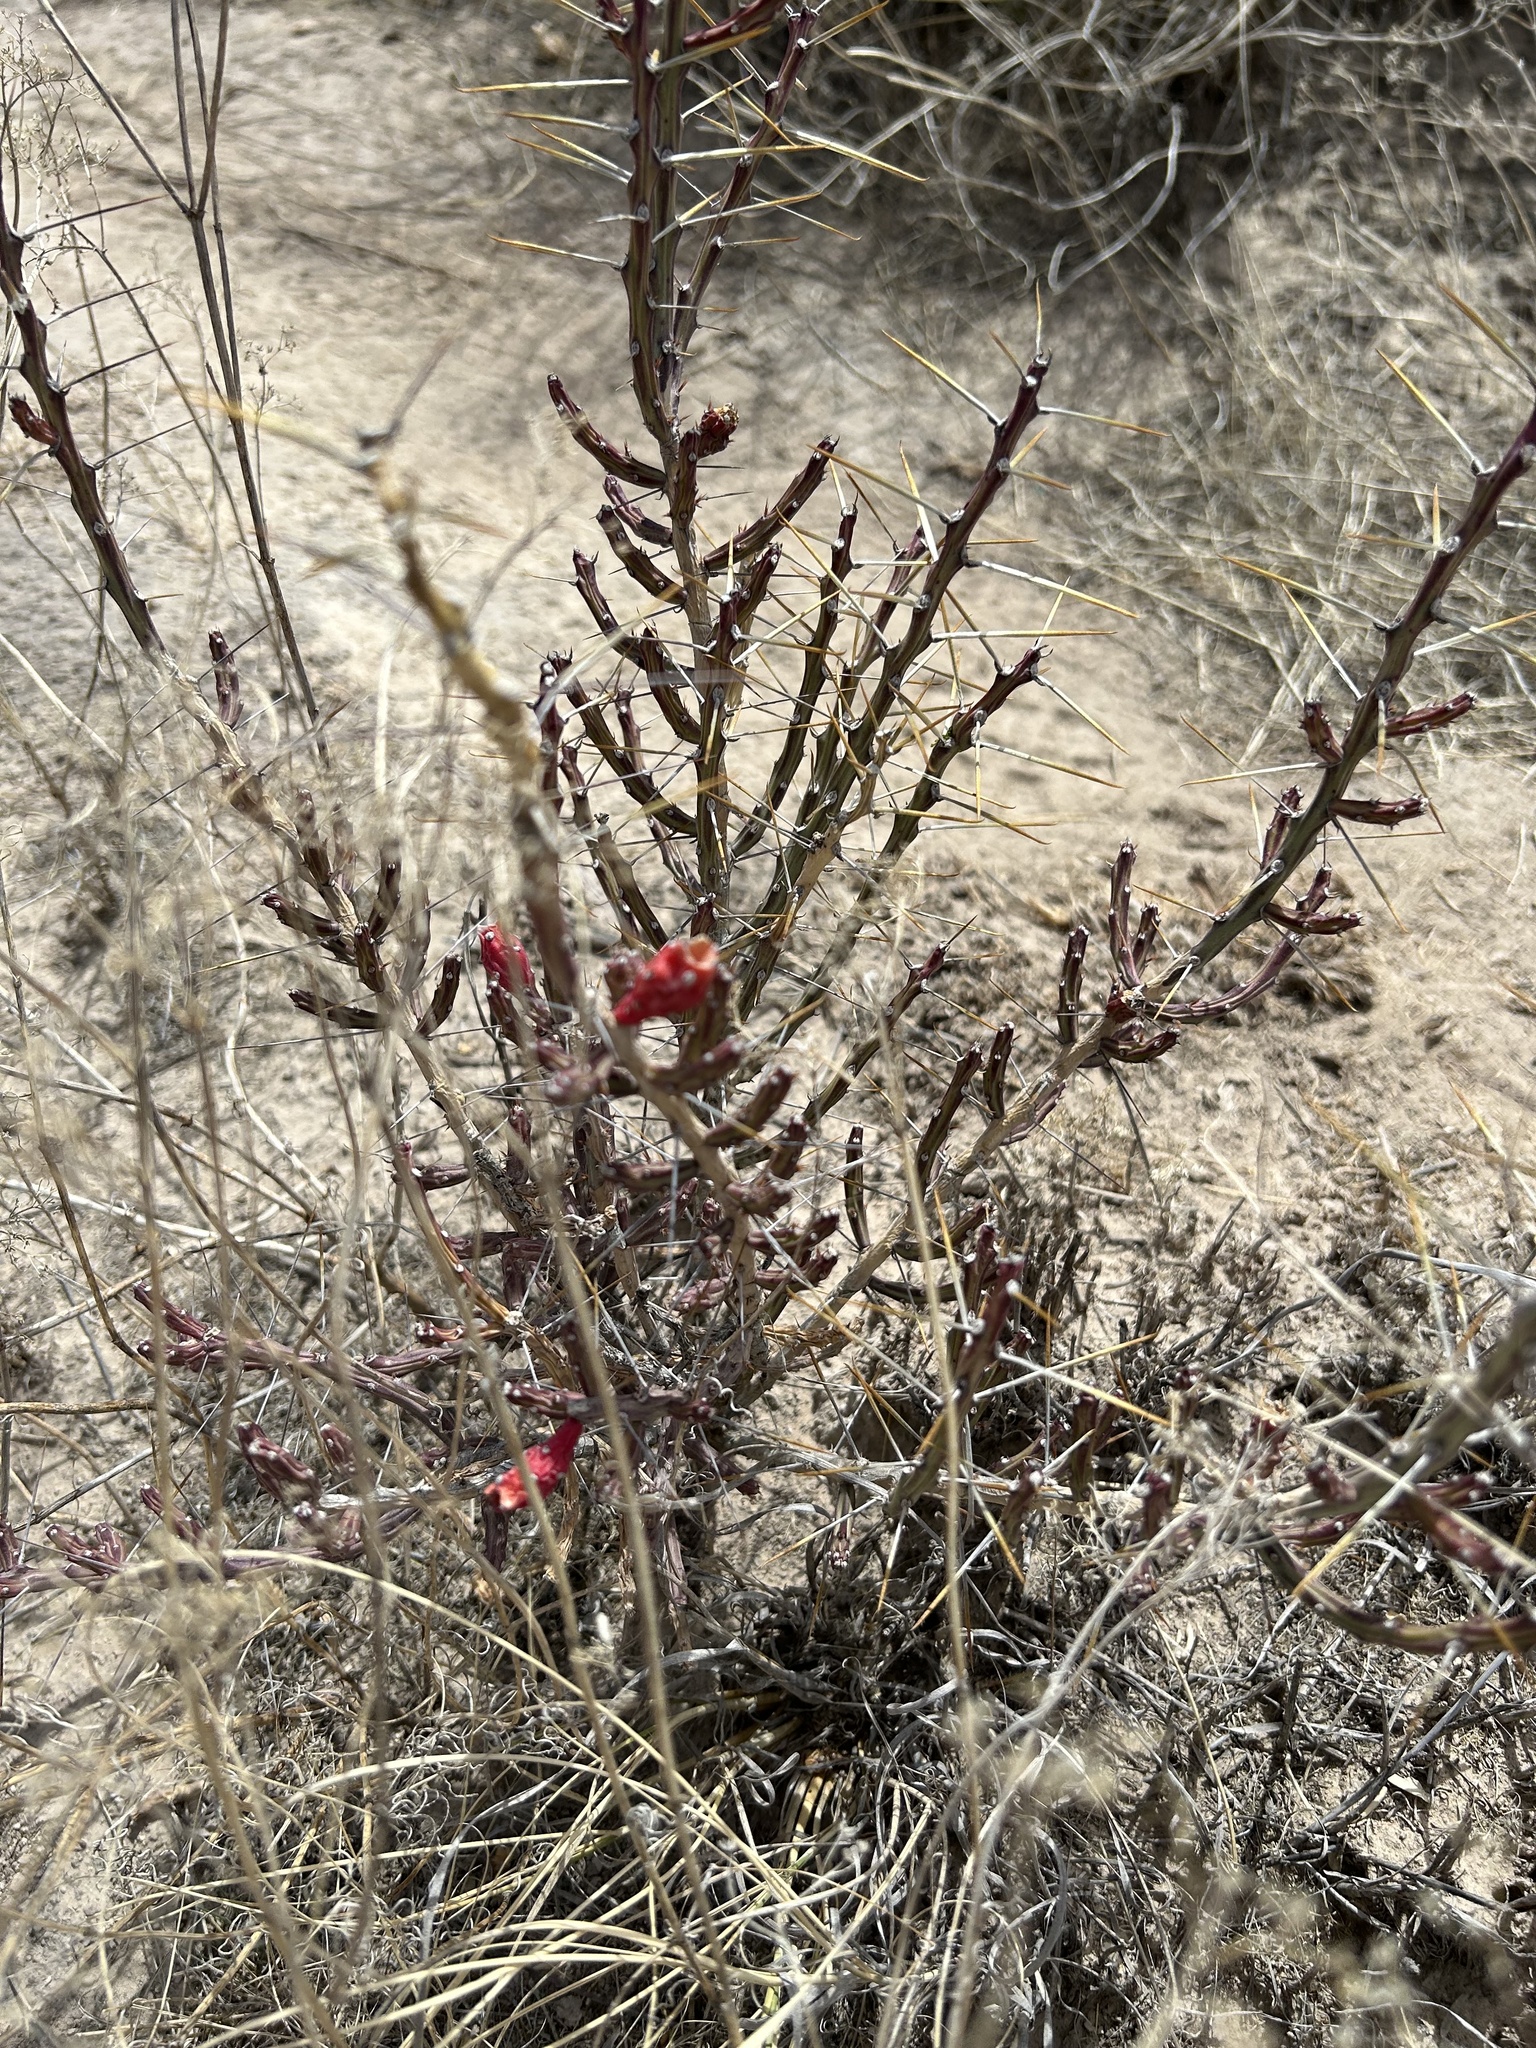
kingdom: Plantae
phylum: Tracheophyta
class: Magnoliopsida
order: Caryophyllales
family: Cactaceae
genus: Cylindropuntia
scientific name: Cylindropuntia leptocaulis
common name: Christmas cactus
